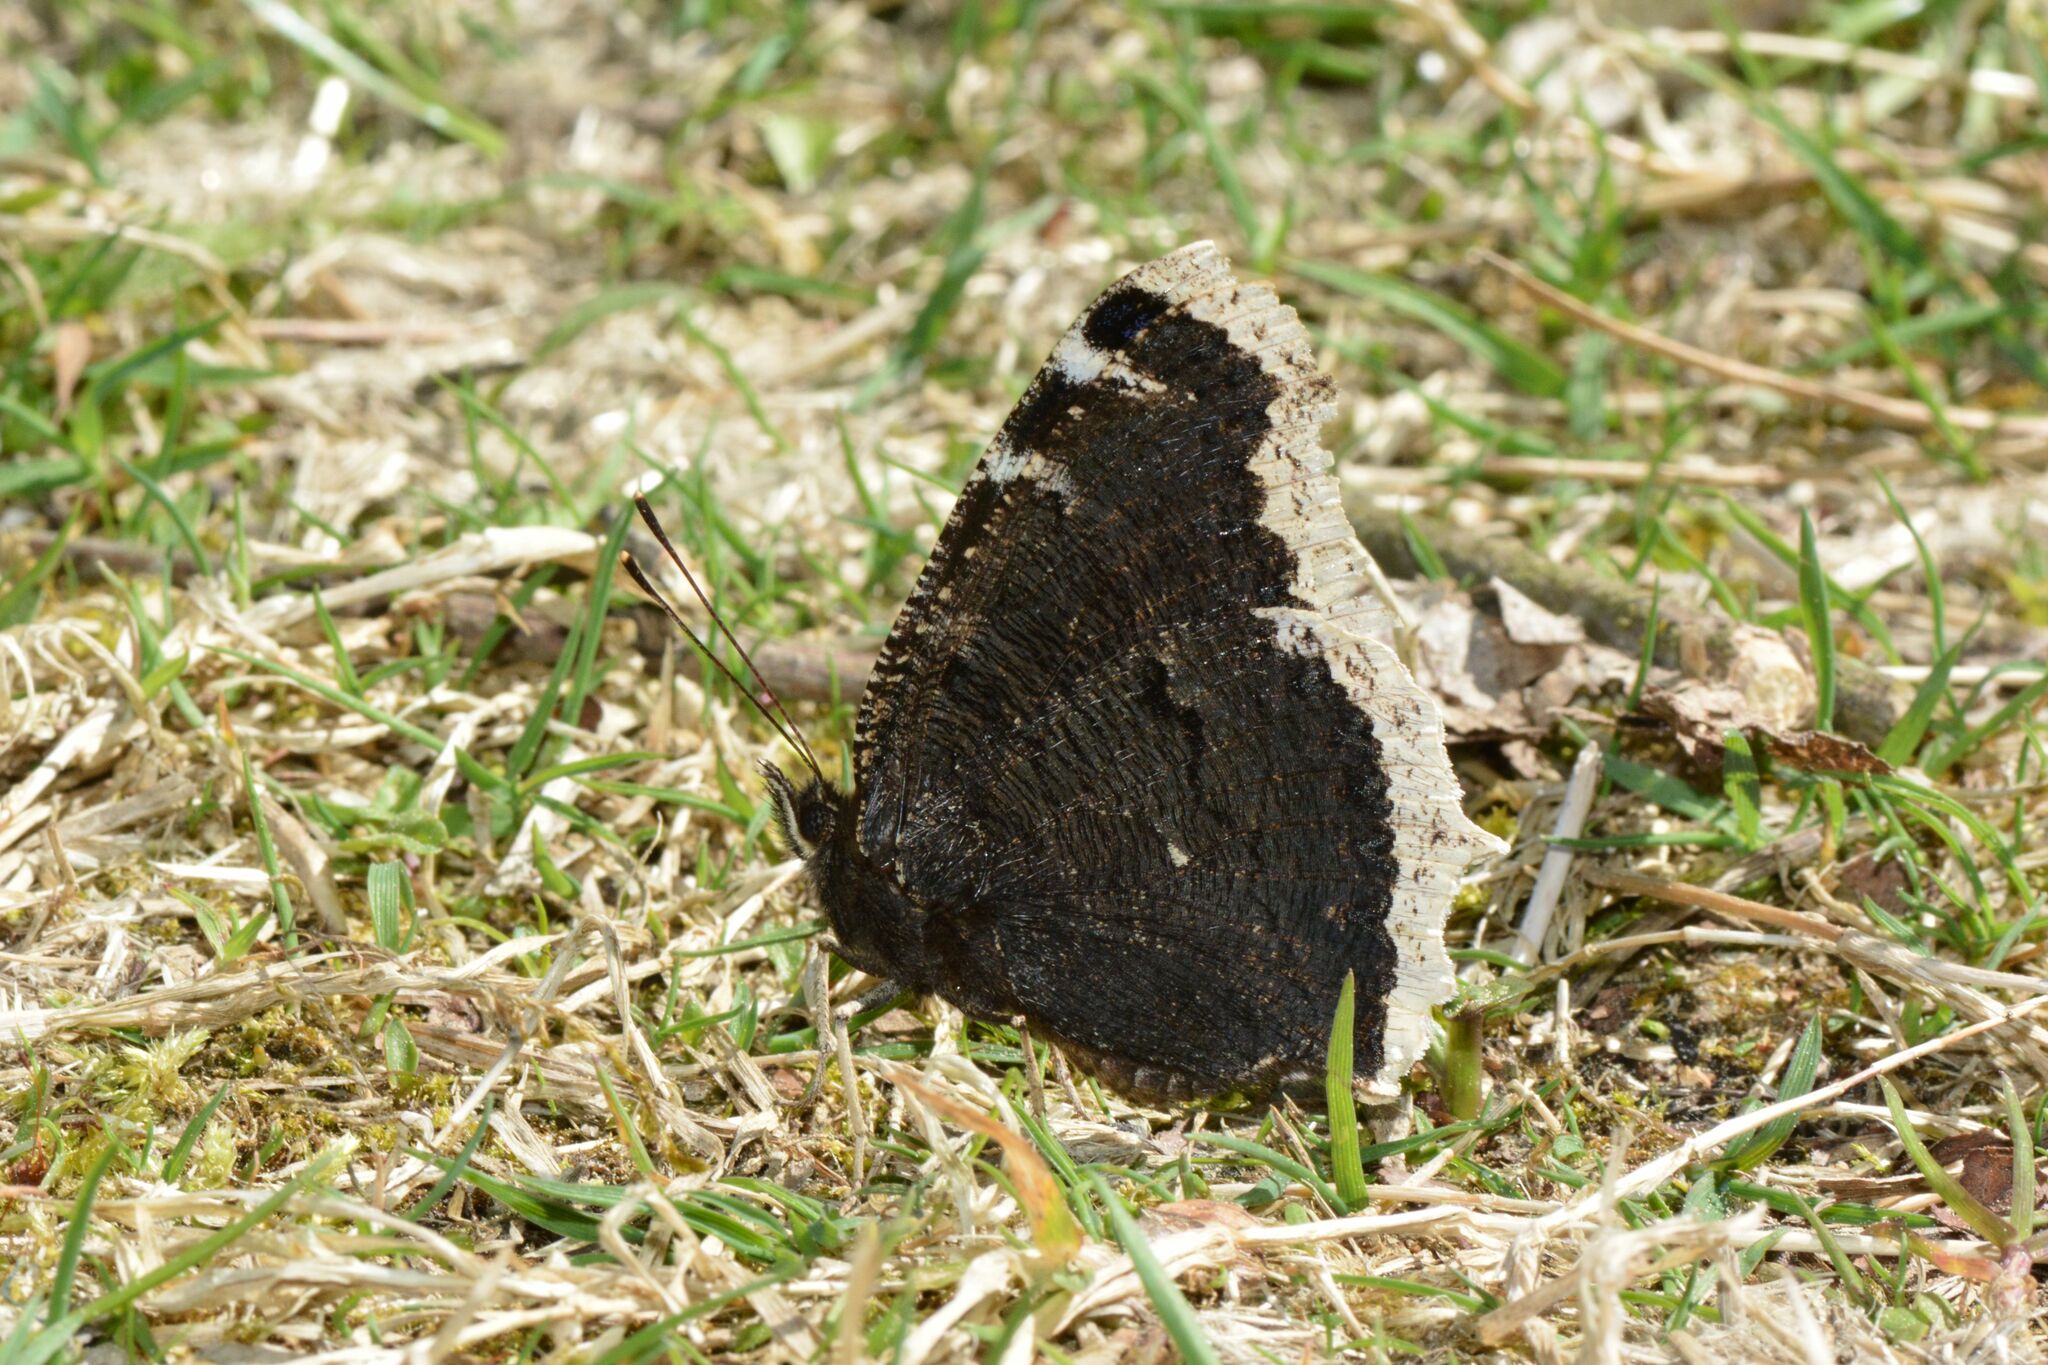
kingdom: Animalia
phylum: Arthropoda
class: Insecta
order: Lepidoptera
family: Nymphalidae
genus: Nymphalis
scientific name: Nymphalis antiopa
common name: Camberwell beauty
